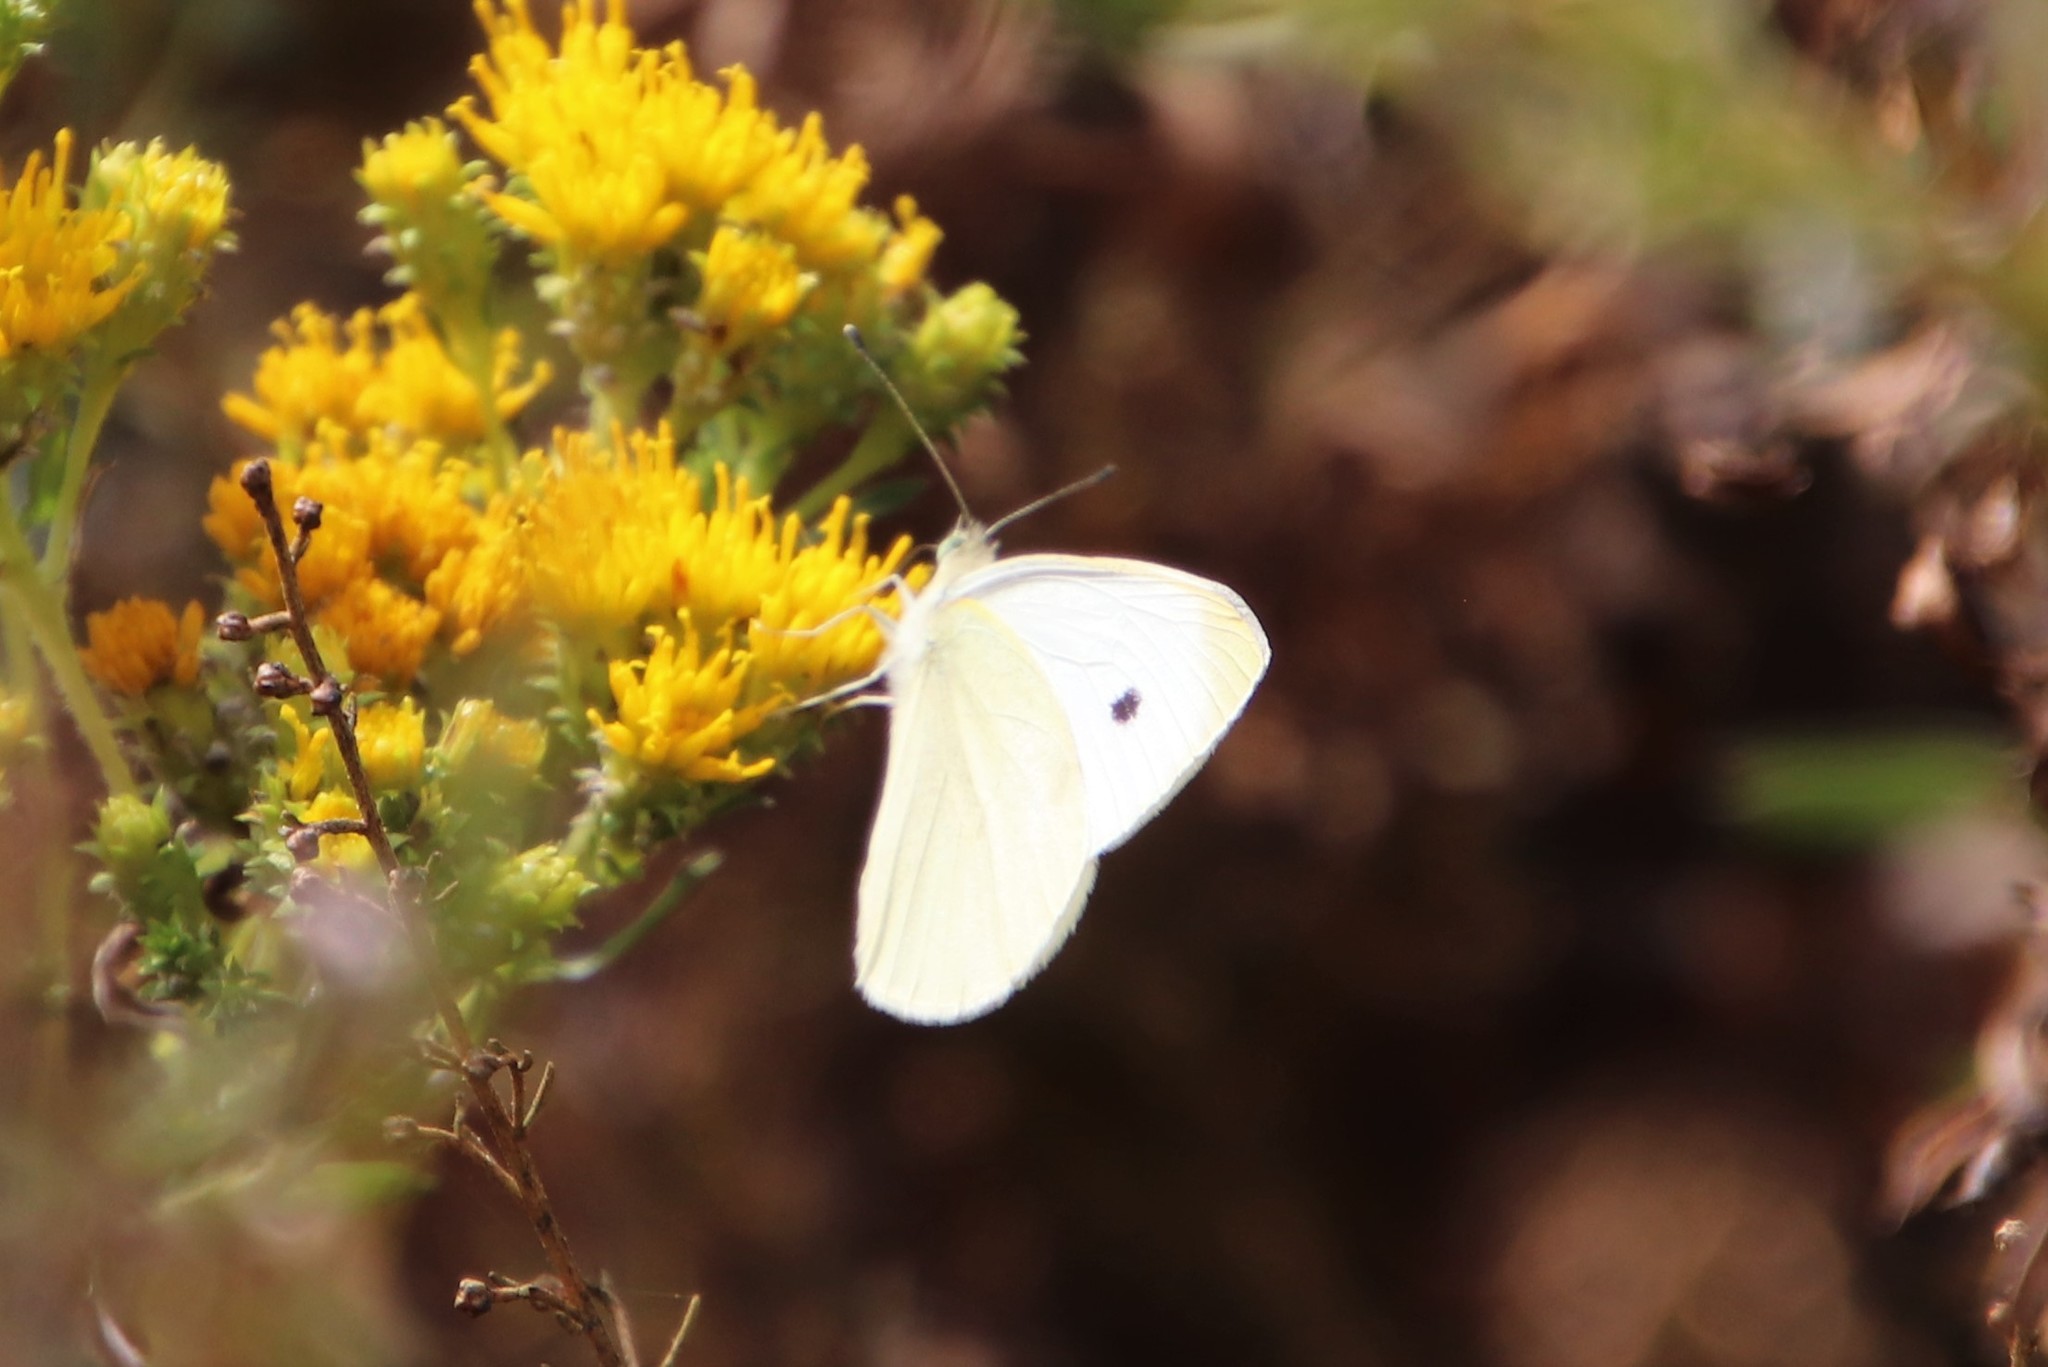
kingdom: Animalia
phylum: Arthropoda
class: Insecta
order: Lepidoptera
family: Pieridae
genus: Pieris
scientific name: Pieris rapae
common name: Small white
